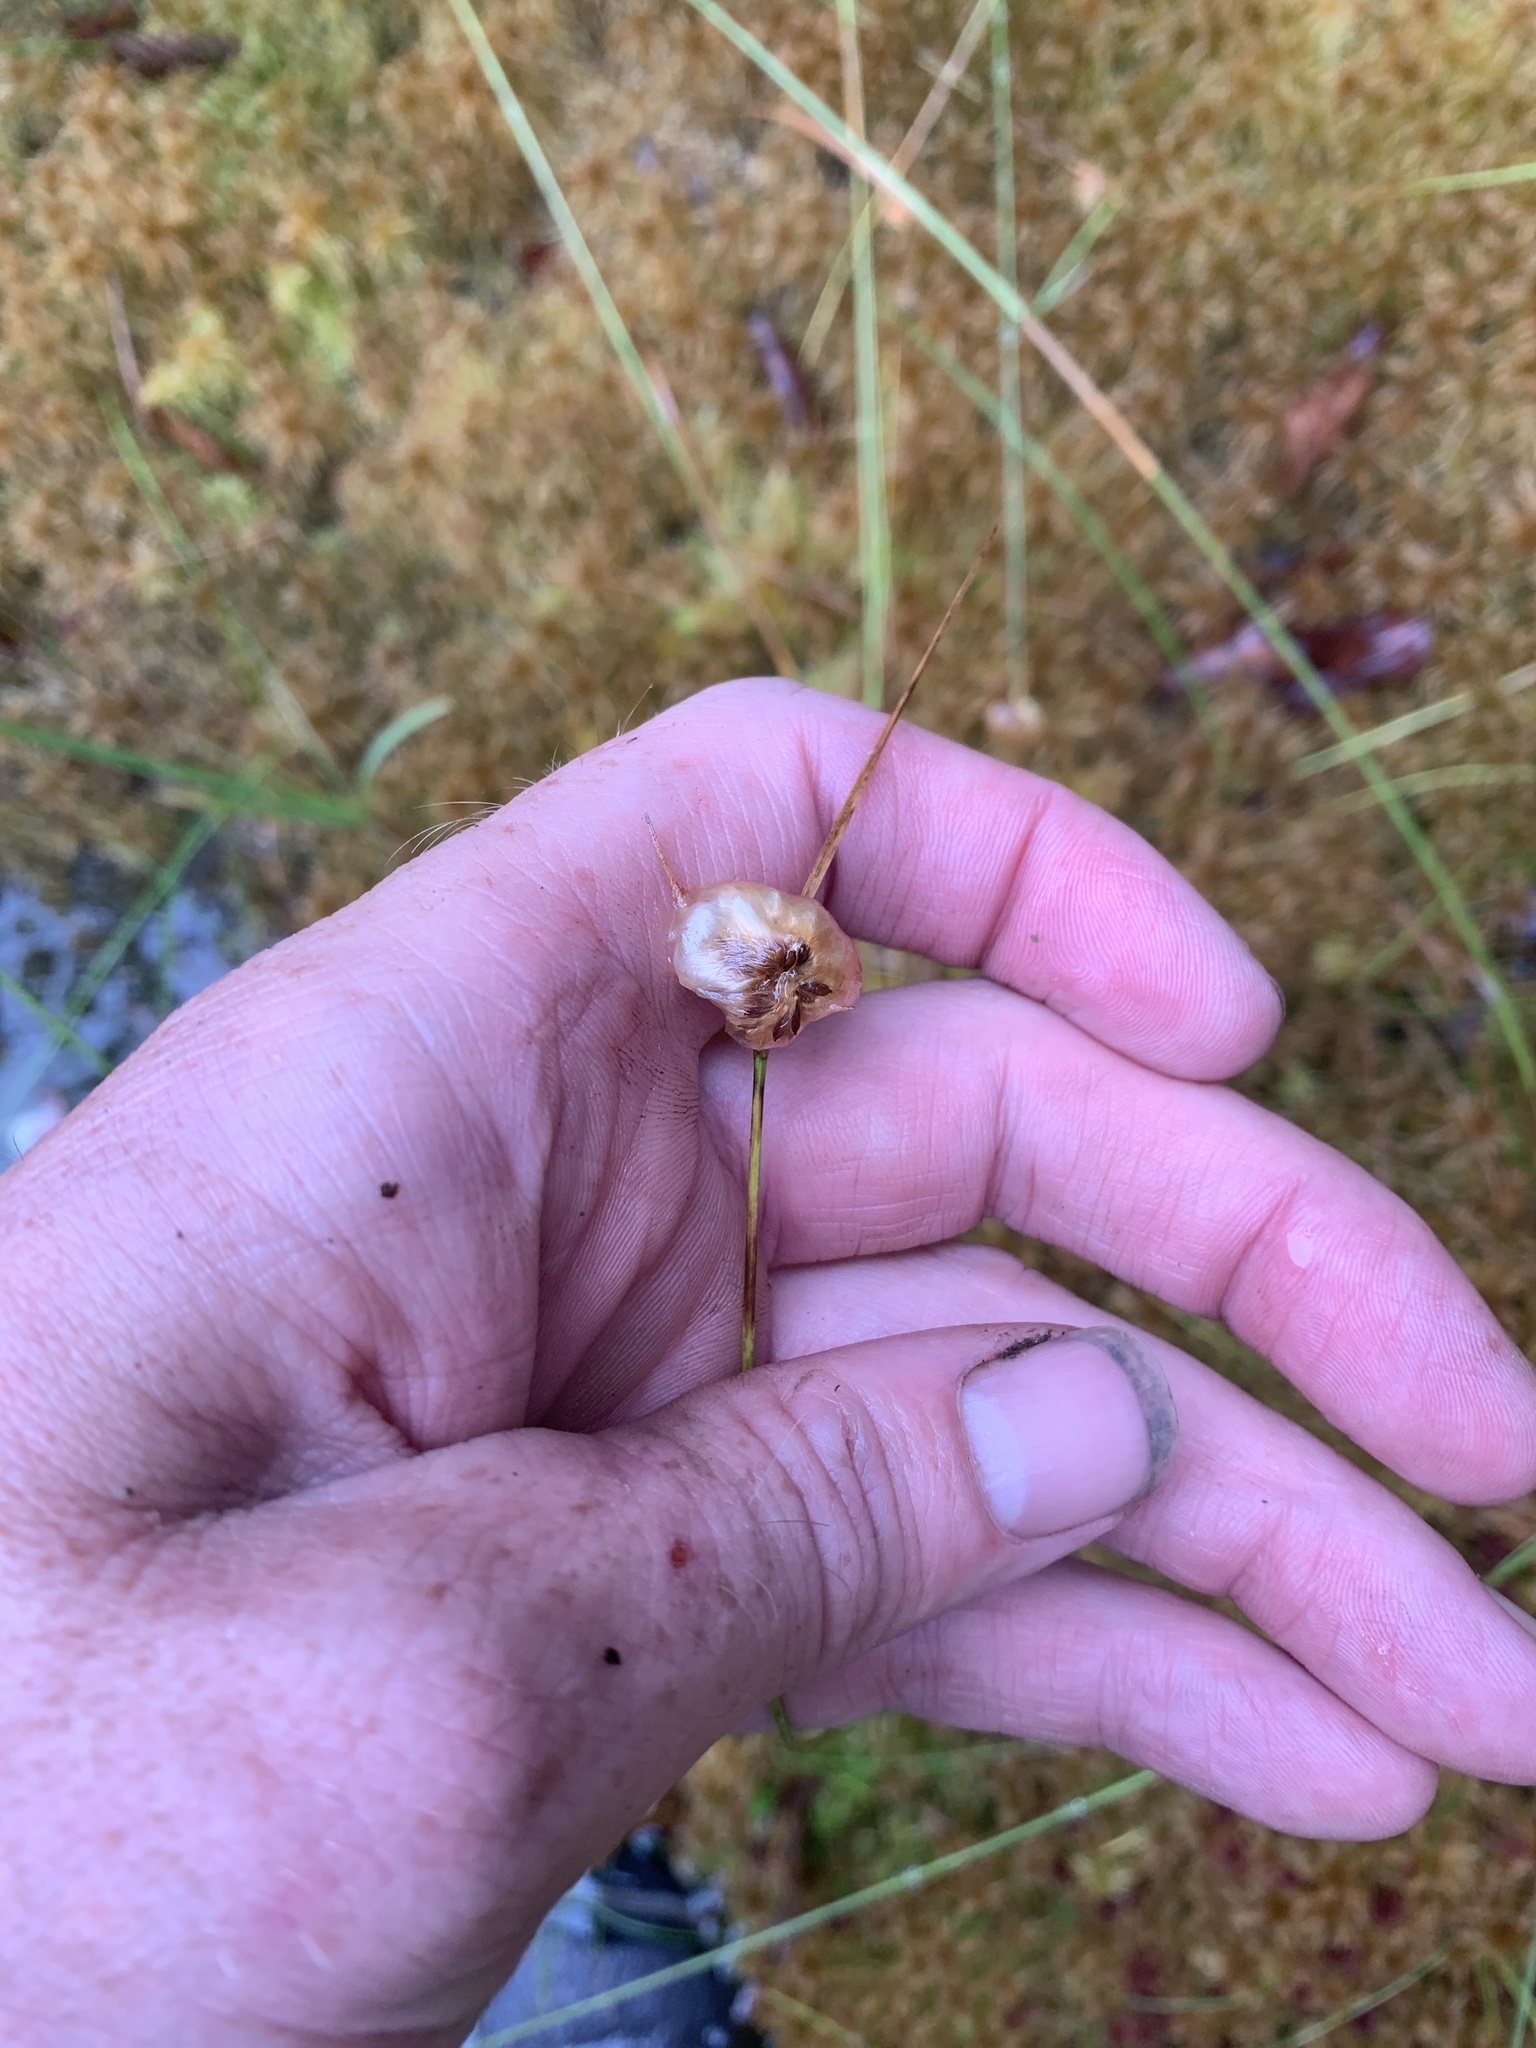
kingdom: Plantae
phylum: Tracheophyta
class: Liliopsida
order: Poales
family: Cyperaceae
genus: Eriophorum
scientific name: Eriophorum virginicum
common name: Tawny cottongrass
